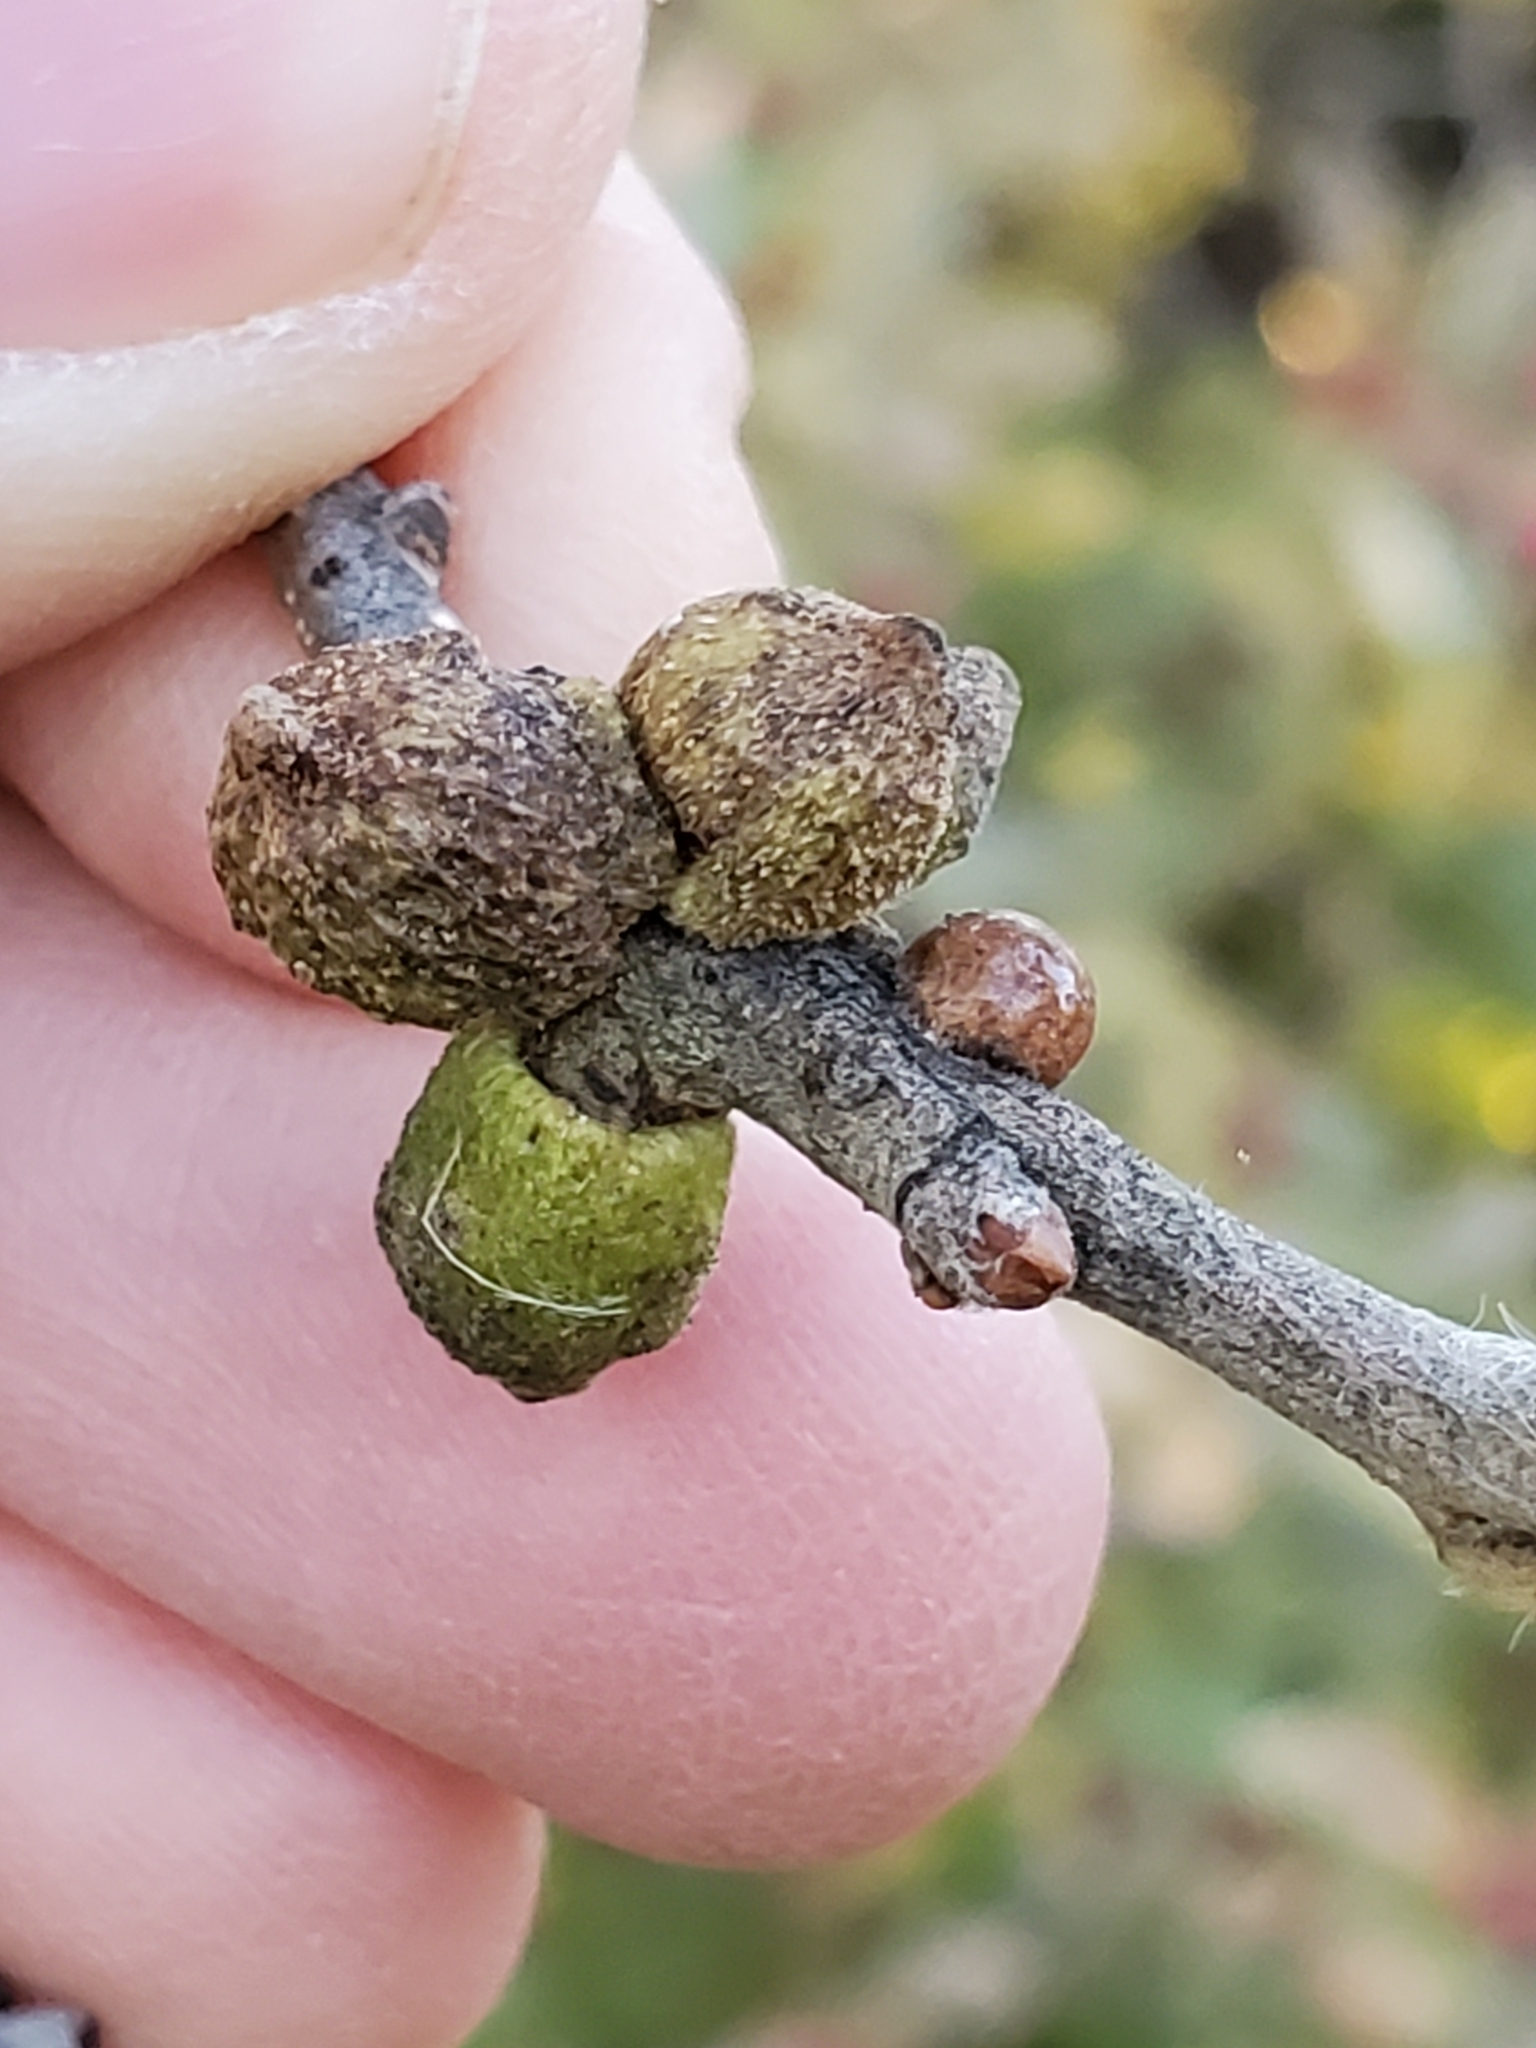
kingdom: Animalia
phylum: Arthropoda
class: Insecta
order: Hymenoptera
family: Cynipidae
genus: Disholcaspis
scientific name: Disholcaspis
